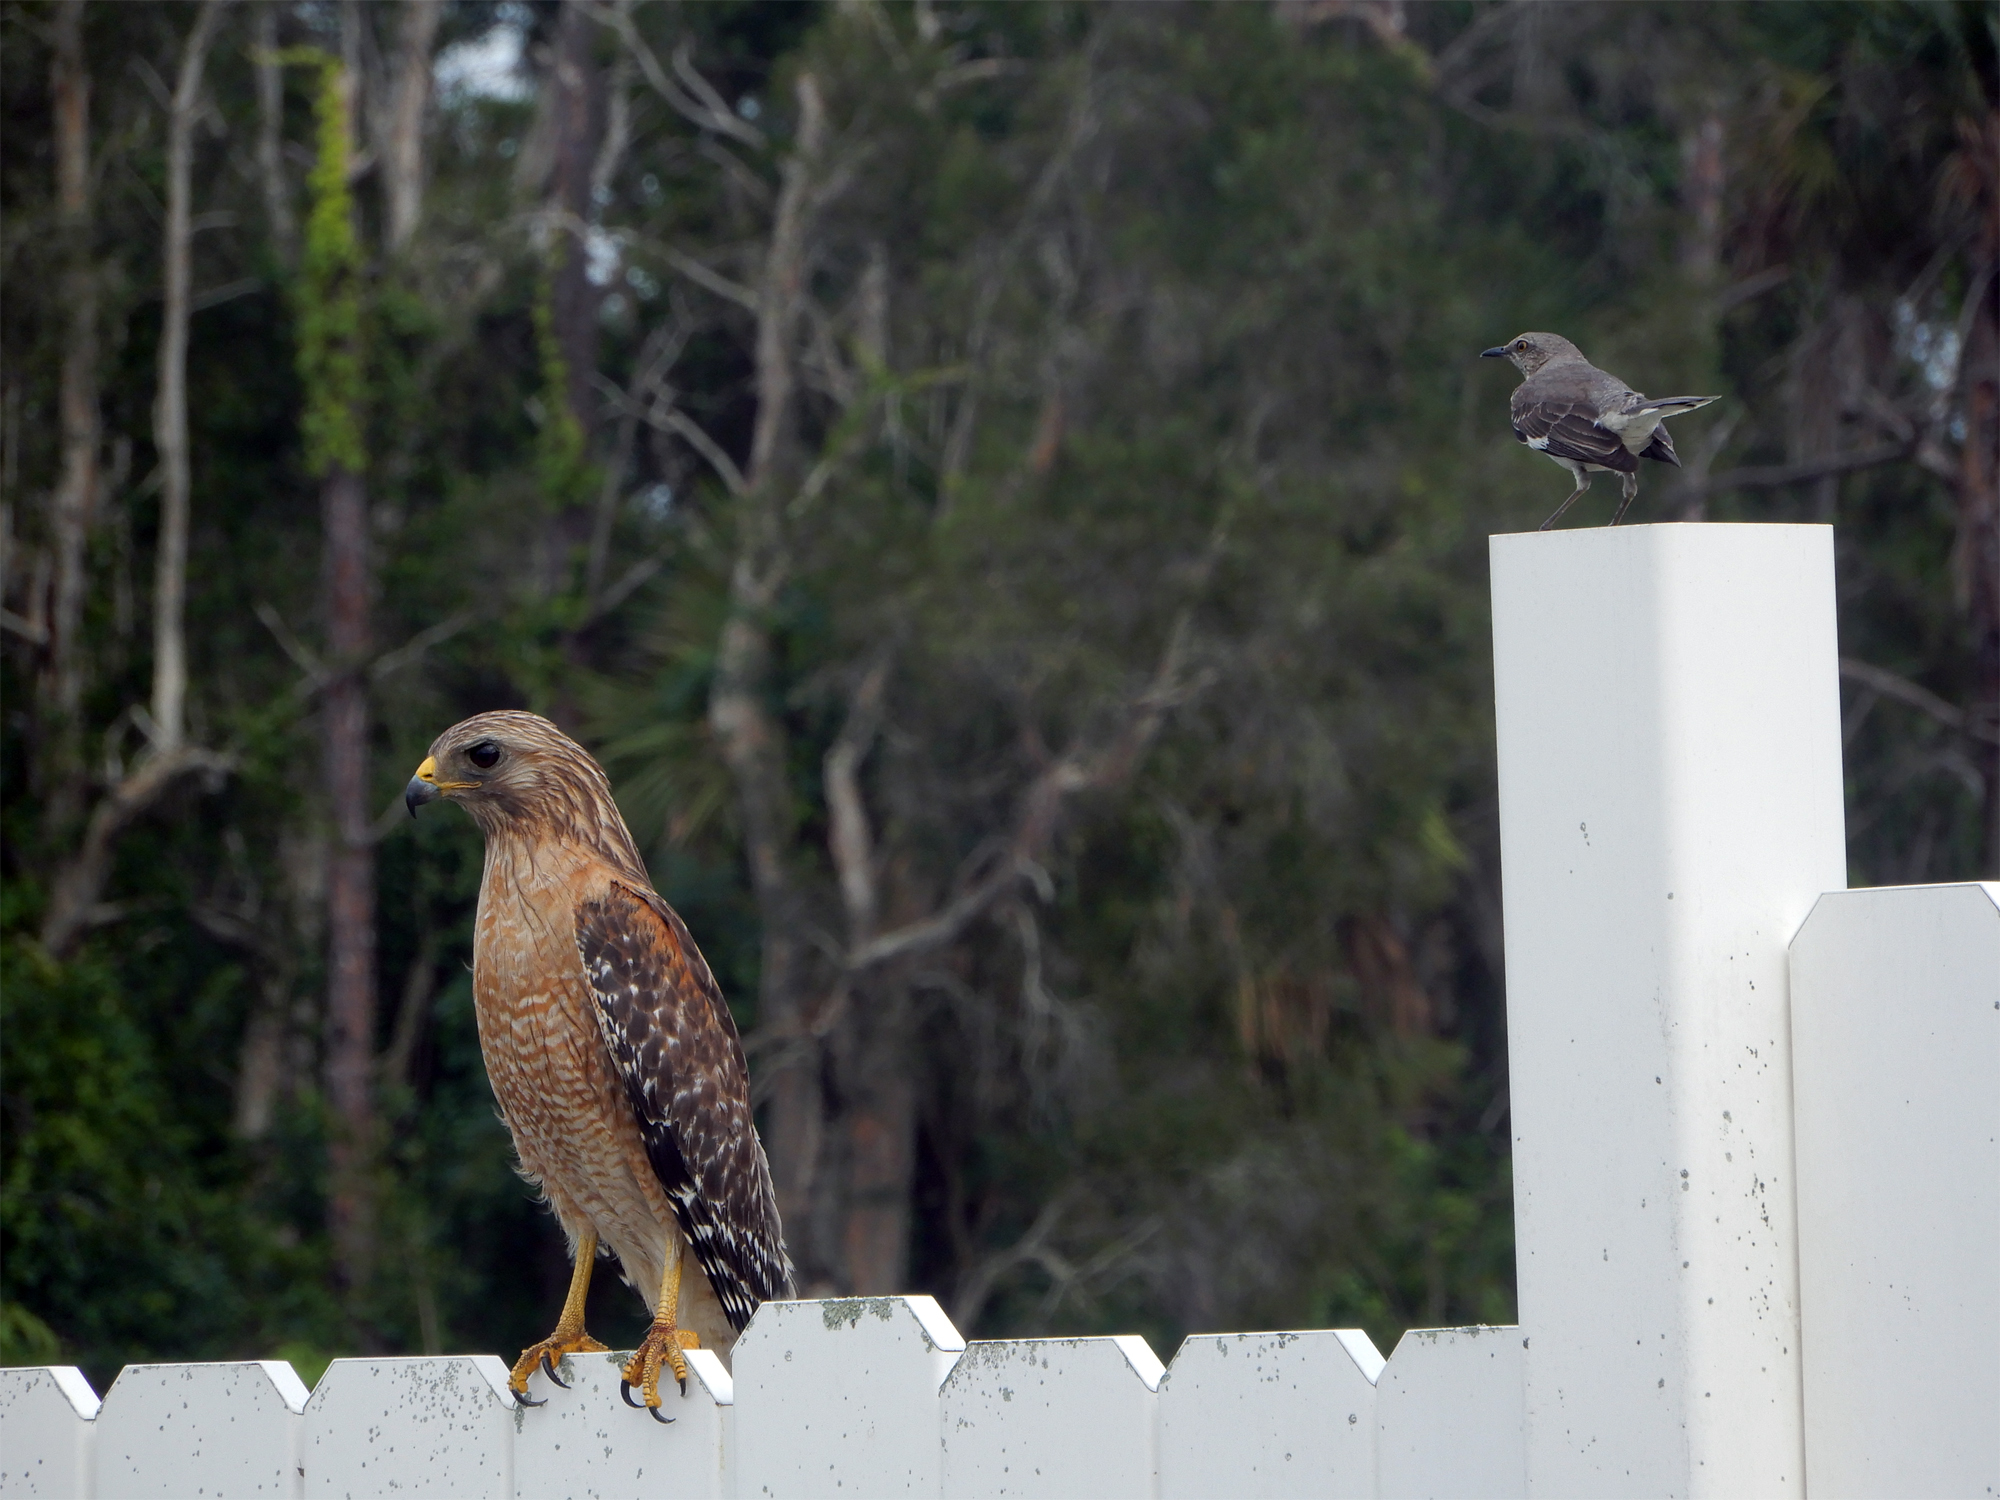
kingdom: Animalia
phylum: Chordata
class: Aves
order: Accipitriformes
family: Accipitridae
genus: Buteo
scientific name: Buteo lineatus
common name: Red-shouldered hawk
